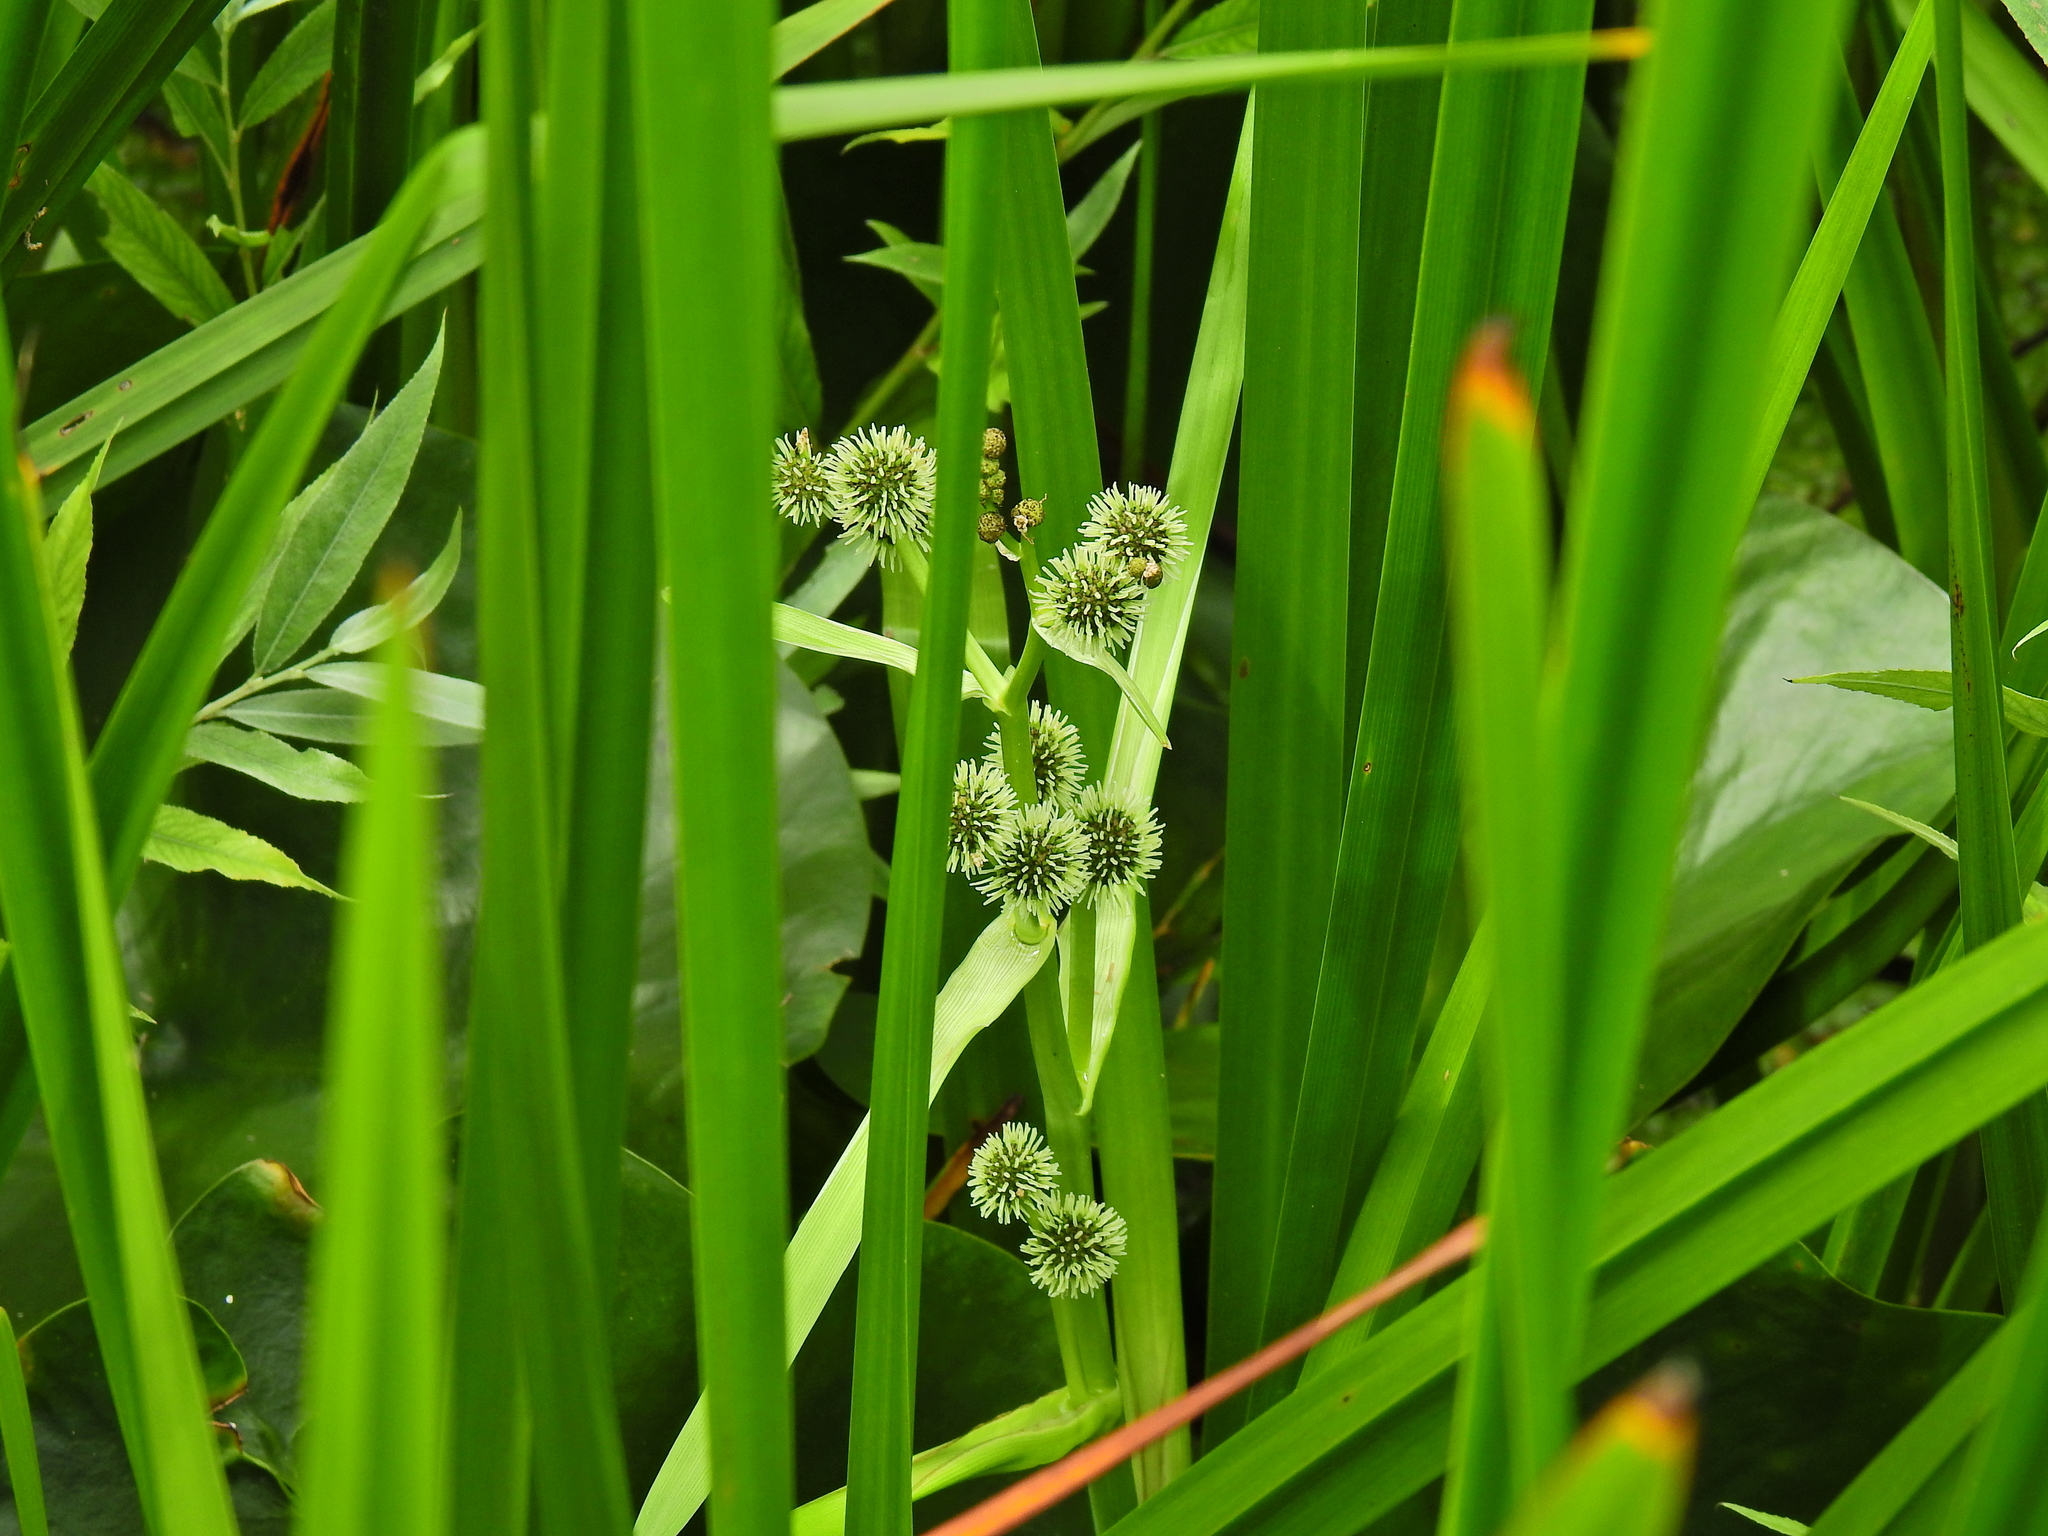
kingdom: Plantae
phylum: Tracheophyta
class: Liliopsida
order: Poales
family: Typhaceae
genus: Sparganium
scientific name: Sparganium erectum
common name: Branched bur-reed
